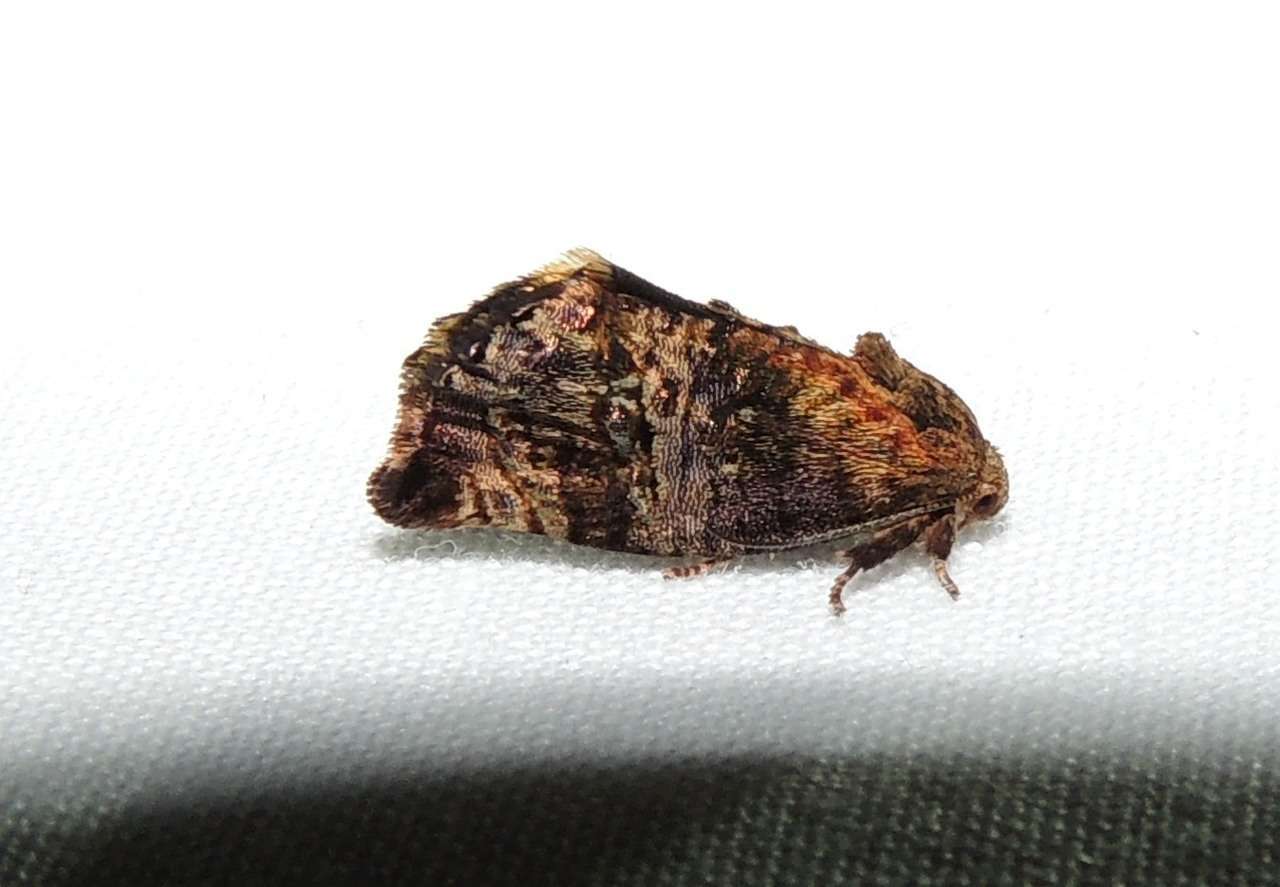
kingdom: Animalia
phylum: Arthropoda
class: Insecta
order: Lepidoptera
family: Depressariidae
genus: Hypertropha
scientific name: Hypertropha tortriciformis
